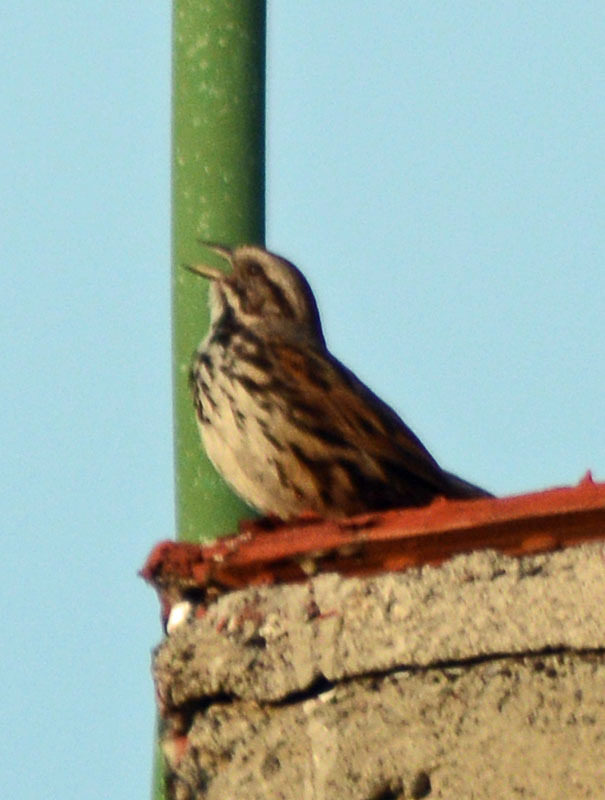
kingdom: Animalia
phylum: Chordata
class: Aves
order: Passeriformes
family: Passerellidae
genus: Melospiza
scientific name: Melospiza melodia
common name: Song sparrow
